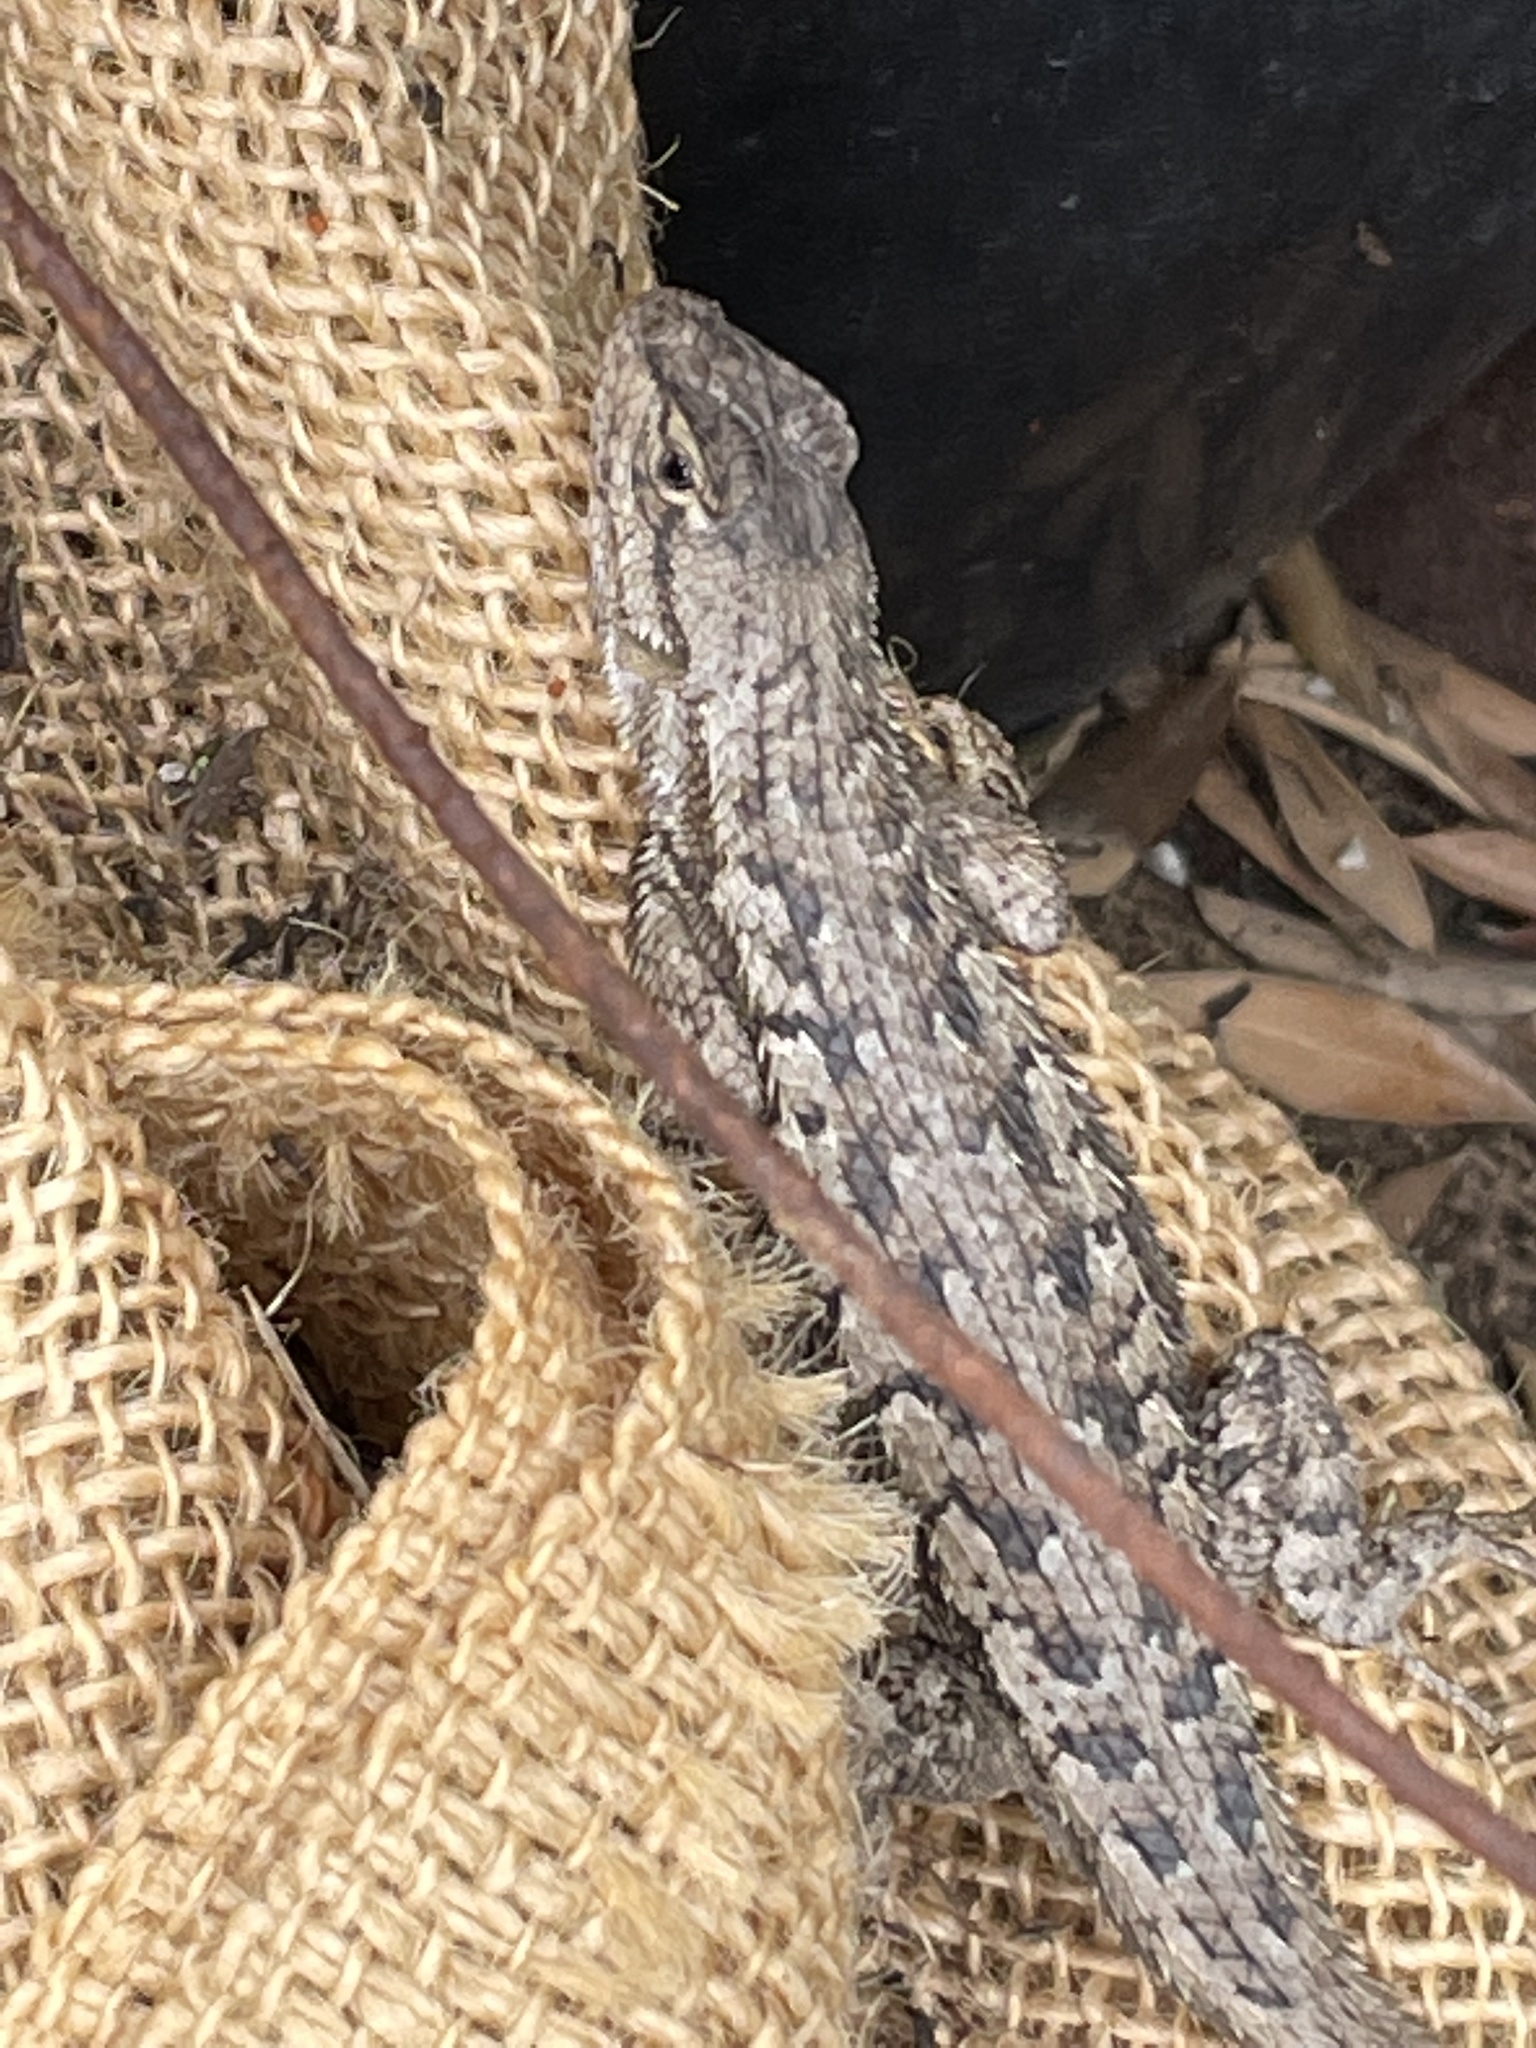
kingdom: Animalia
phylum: Chordata
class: Squamata
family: Phrynosomatidae
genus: Sceloporus
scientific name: Sceloporus occidentalis
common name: Western fence lizard
